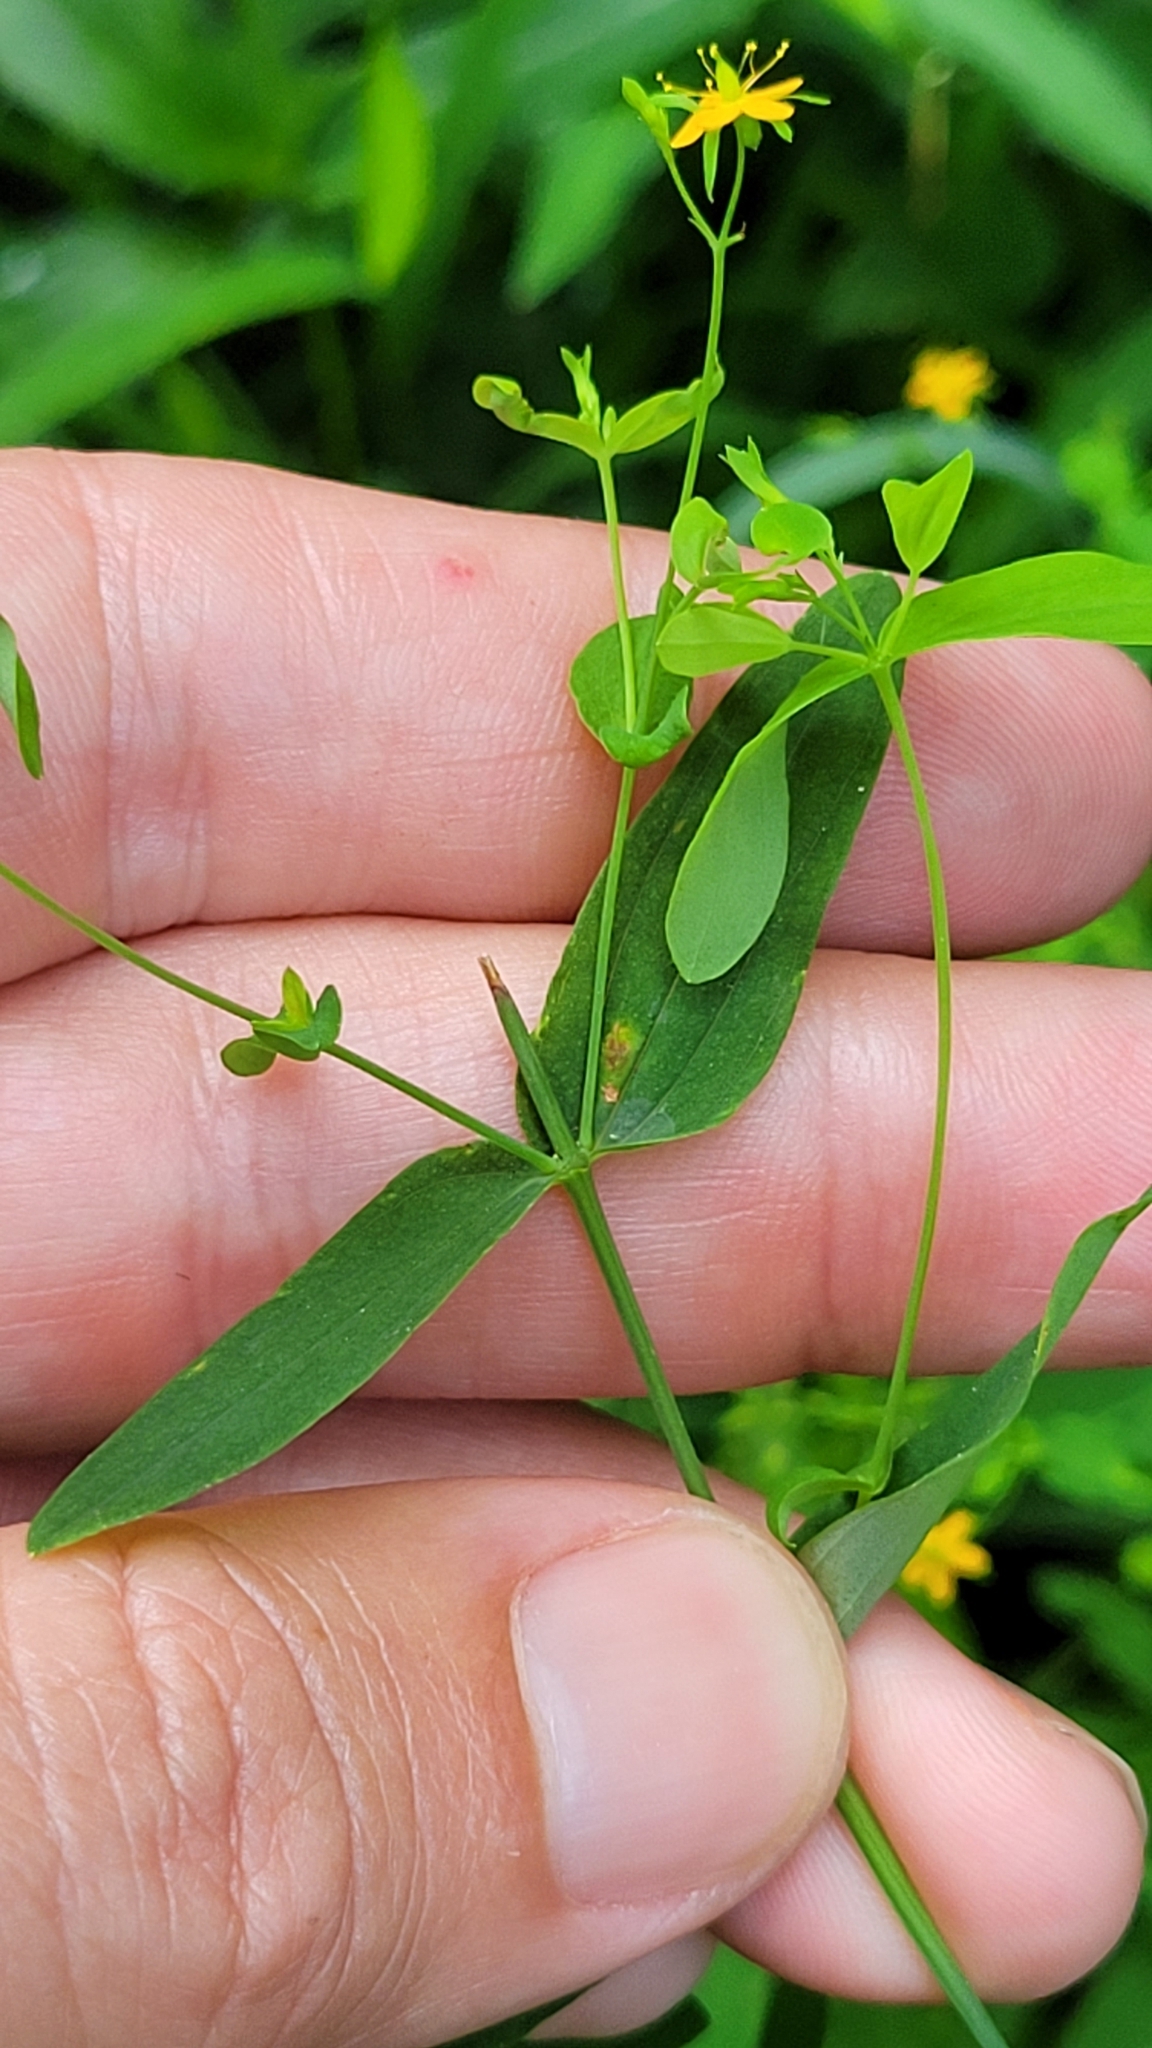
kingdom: Plantae
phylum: Tracheophyta
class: Magnoliopsida
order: Malpighiales
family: Hypericaceae
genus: Hypericum
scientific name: Hypericum mutilum
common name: Dwarf st. john's-wort
